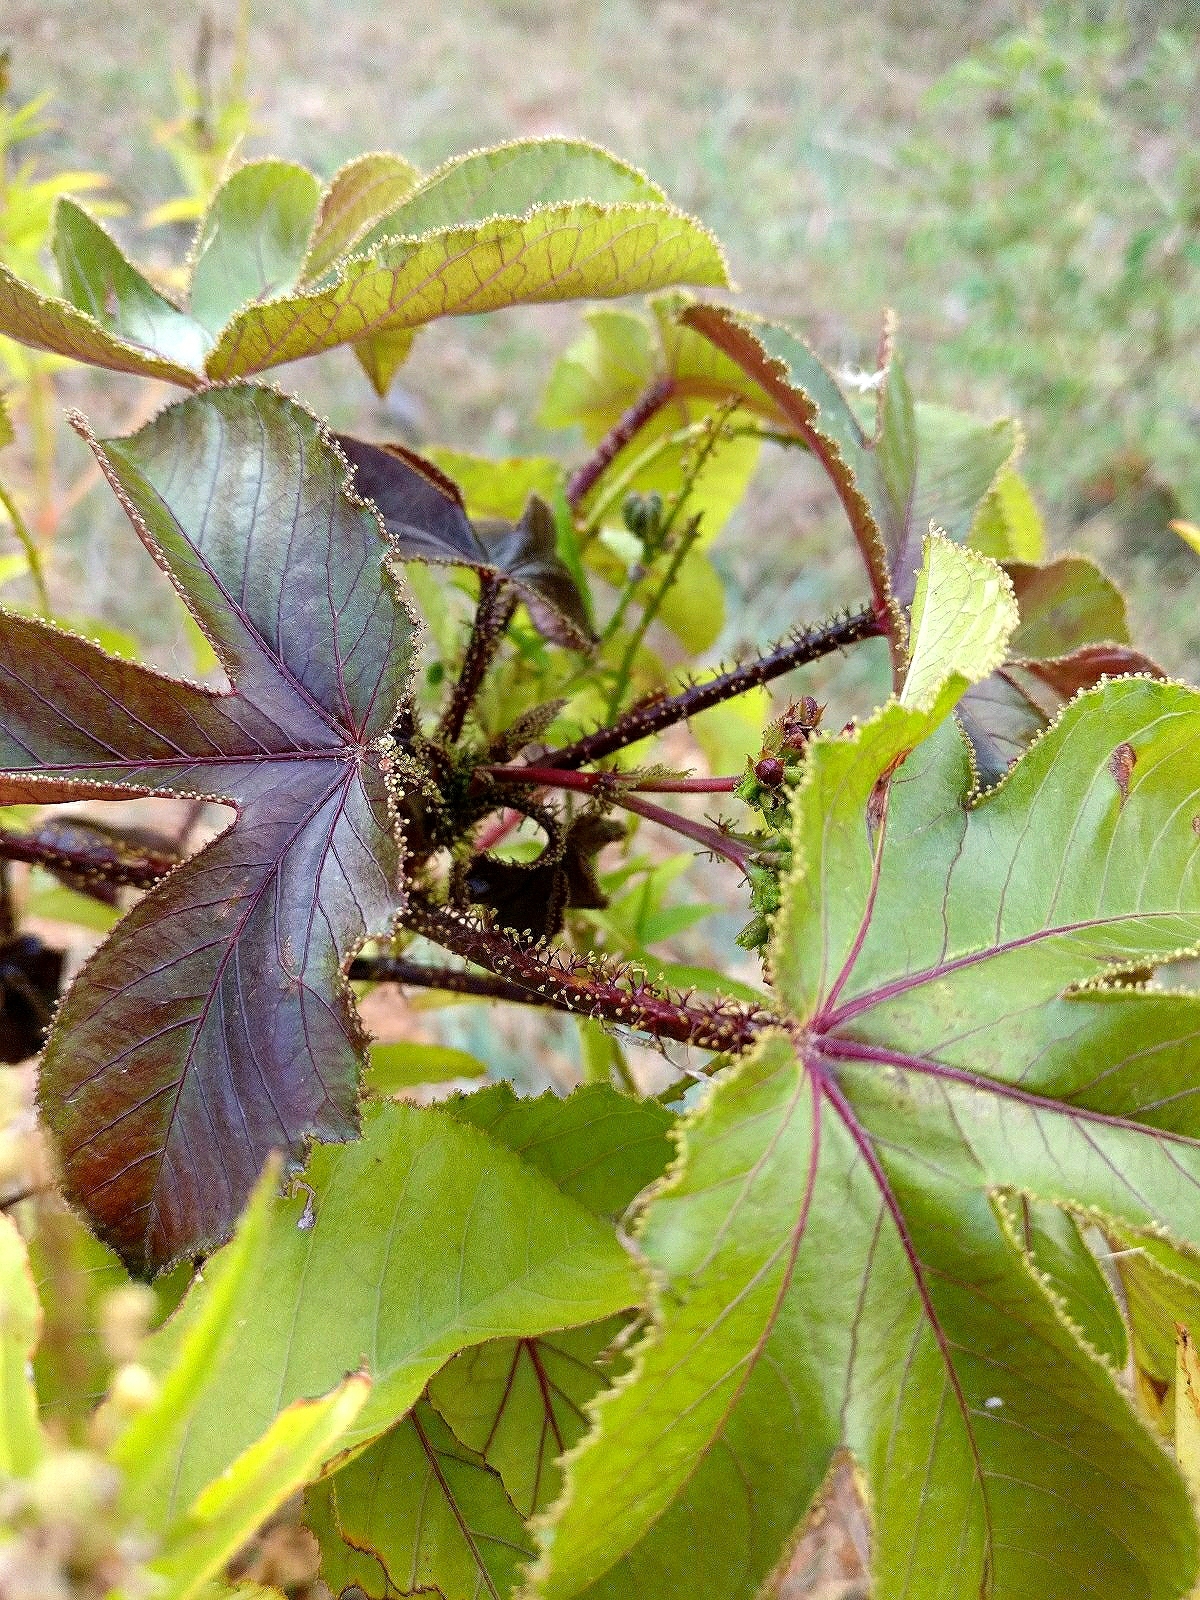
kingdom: Plantae
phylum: Tracheophyta
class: Magnoliopsida
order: Malpighiales
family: Euphorbiaceae
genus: Jatropha
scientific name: Jatropha gossypiifolia
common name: Bellyache bush
